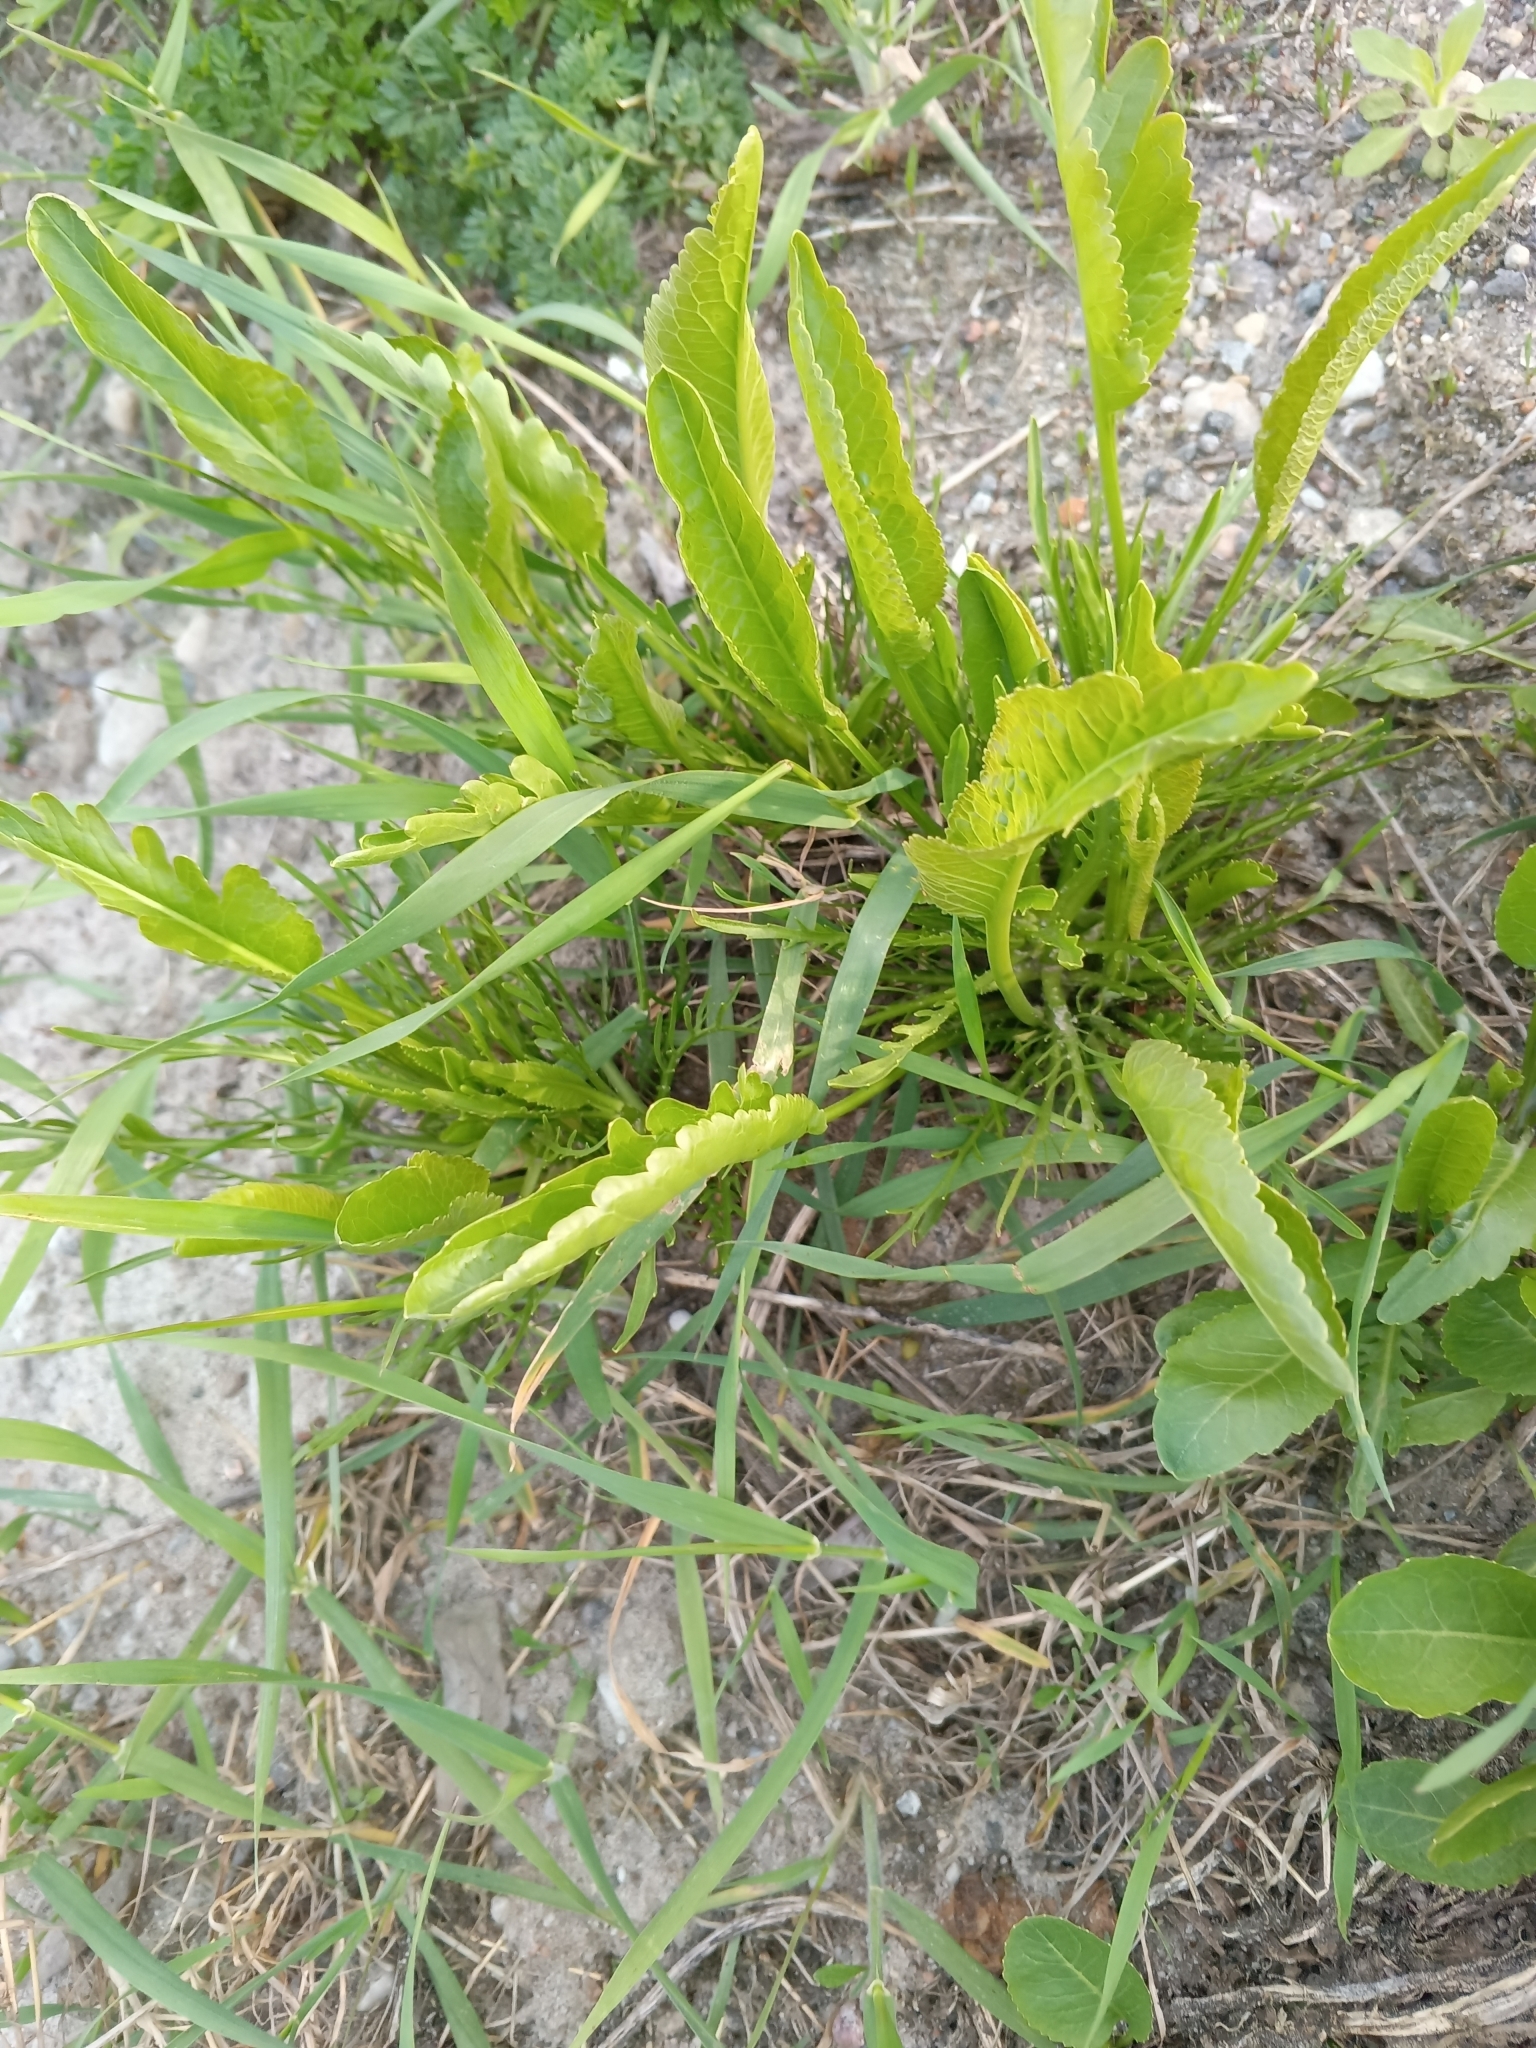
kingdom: Plantae
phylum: Tracheophyta
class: Magnoliopsida
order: Brassicales
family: Brassicaceae
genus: Armoracia
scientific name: Armoracia rusticana
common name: Horseradish
